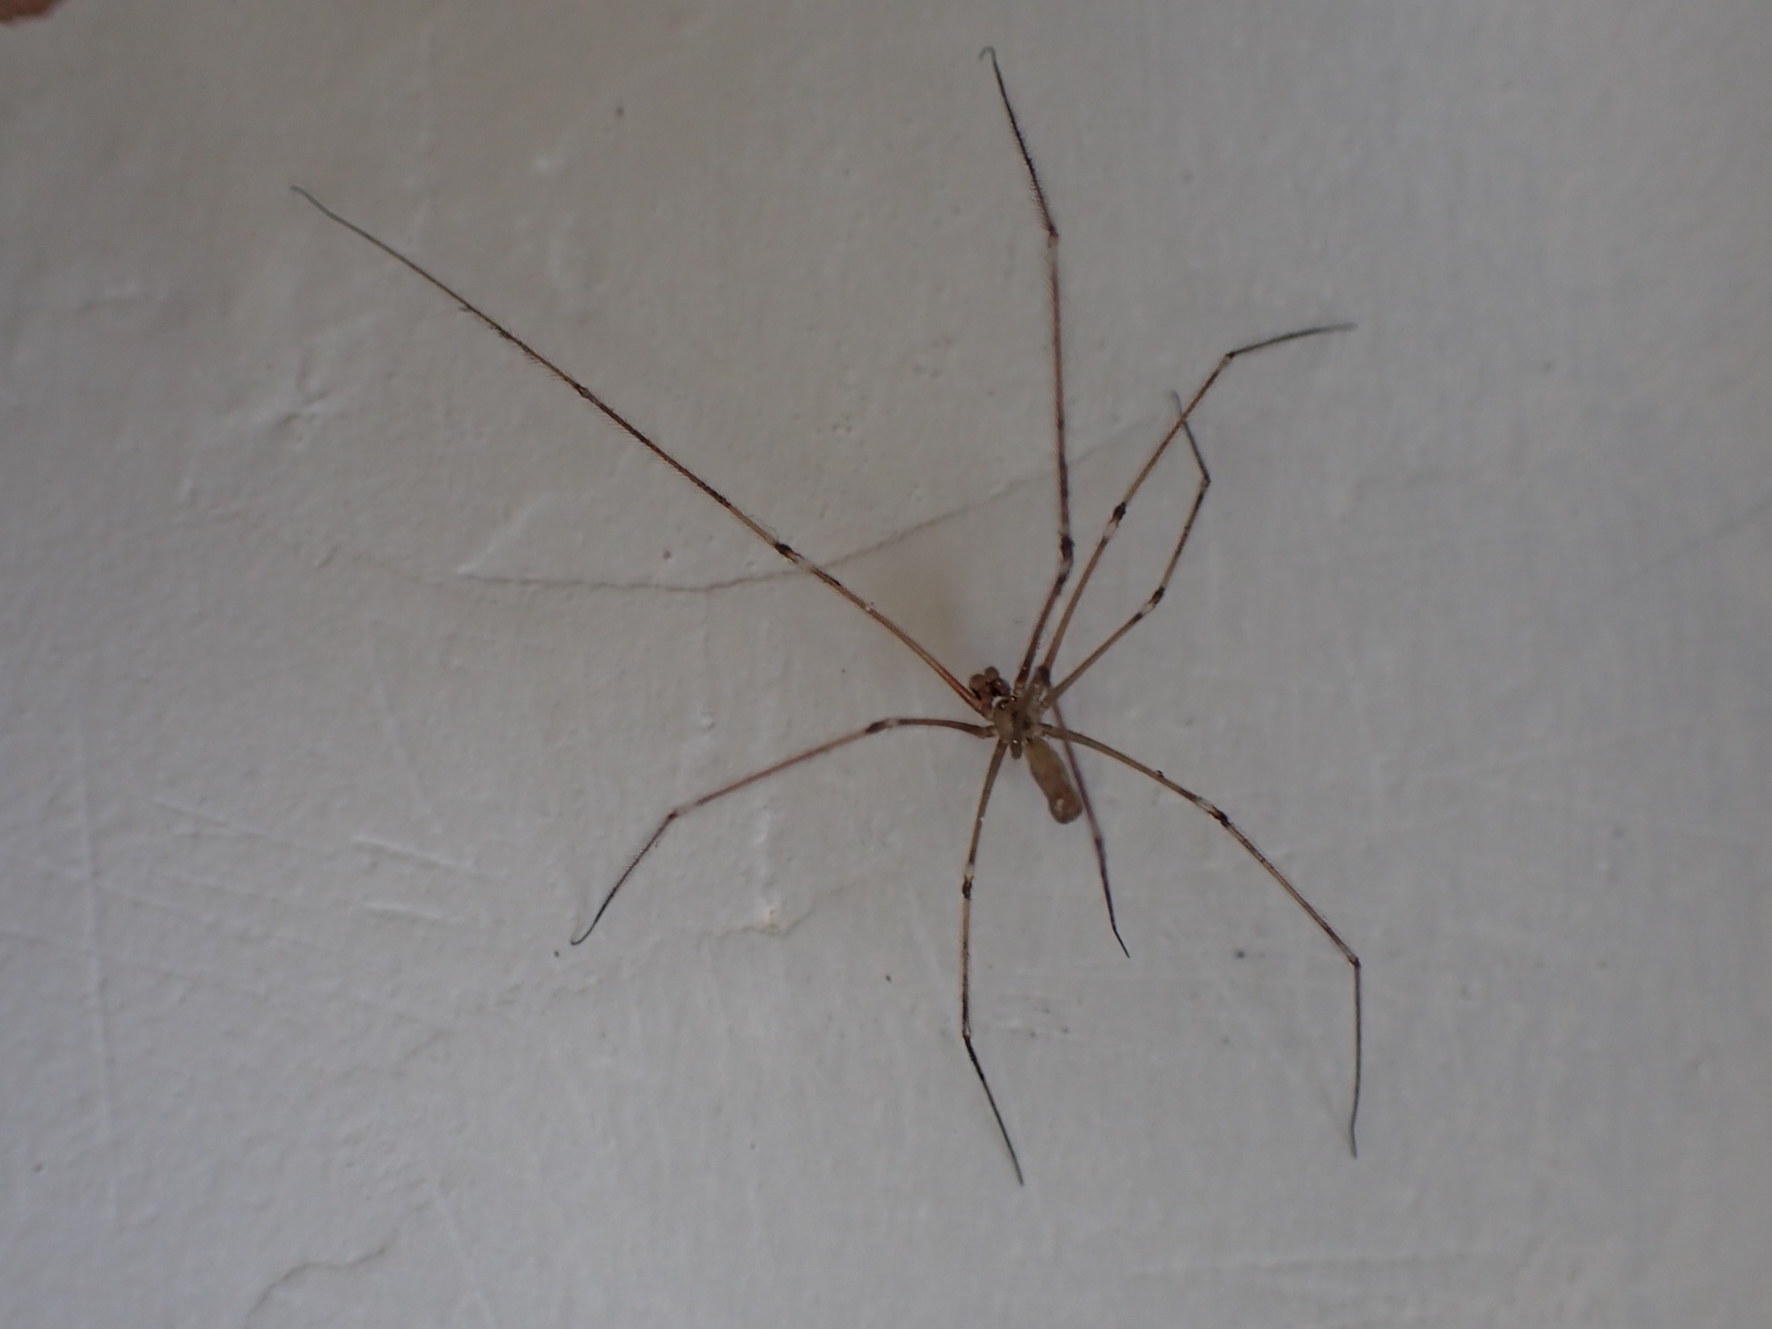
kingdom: Animalia
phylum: Arthropoda
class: Arachnida
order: Araneae
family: Pholcidae
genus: Pholcus
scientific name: Pholcus phalangioides
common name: Longbodied cellar spider
